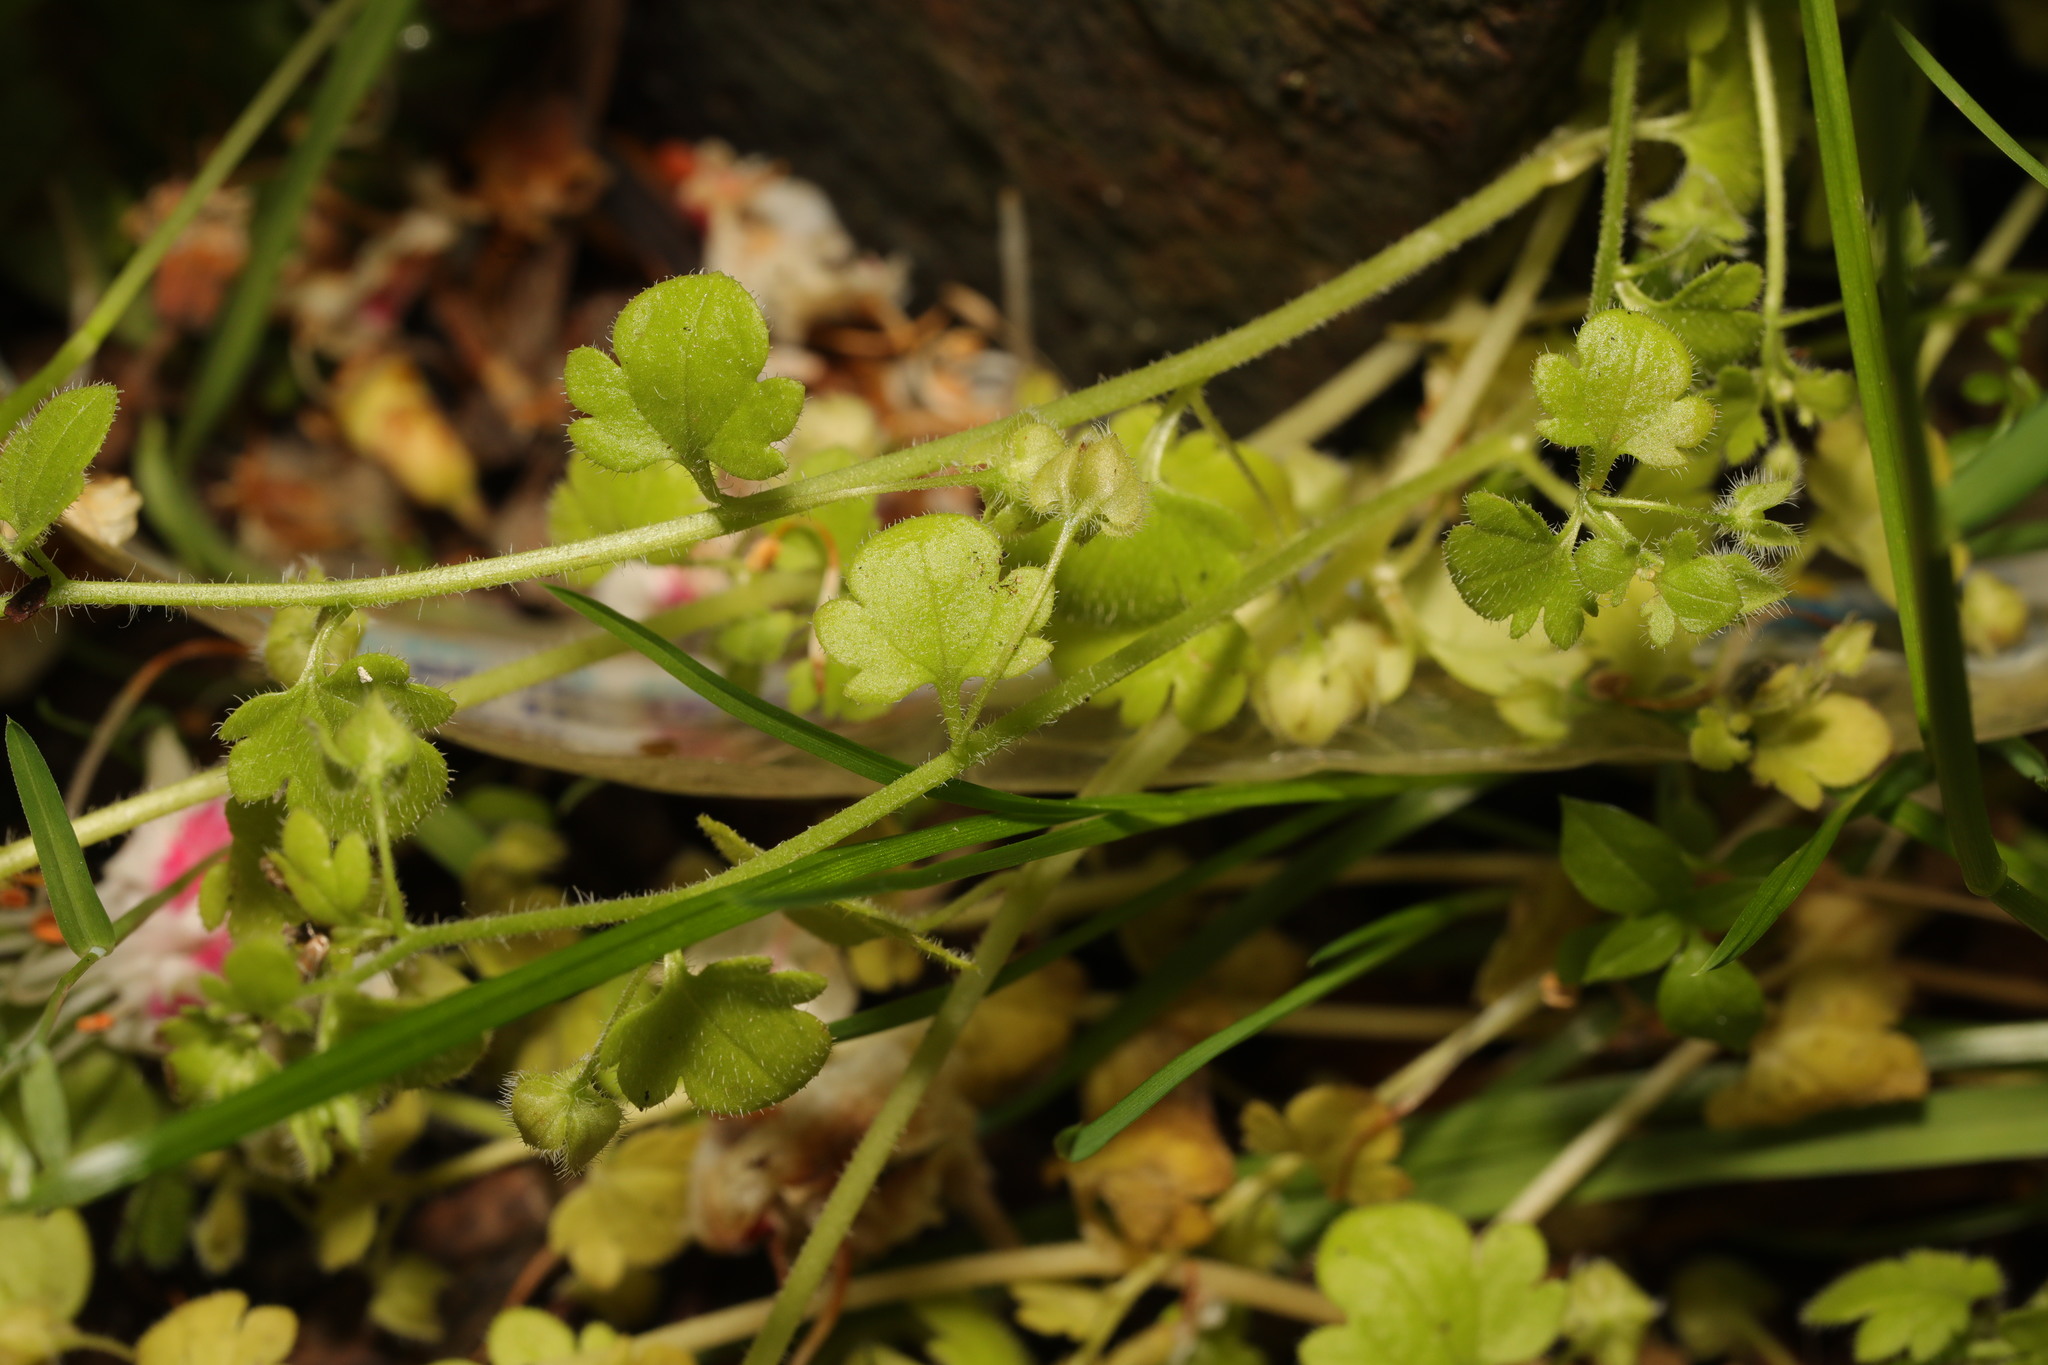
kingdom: Plantae
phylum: Tracheophyta
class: Magnoliopsida
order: Lamiales
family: Plantaginaceae
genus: Veronica
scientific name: Veronica hederifolia
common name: Ivy-leaved speedwell
